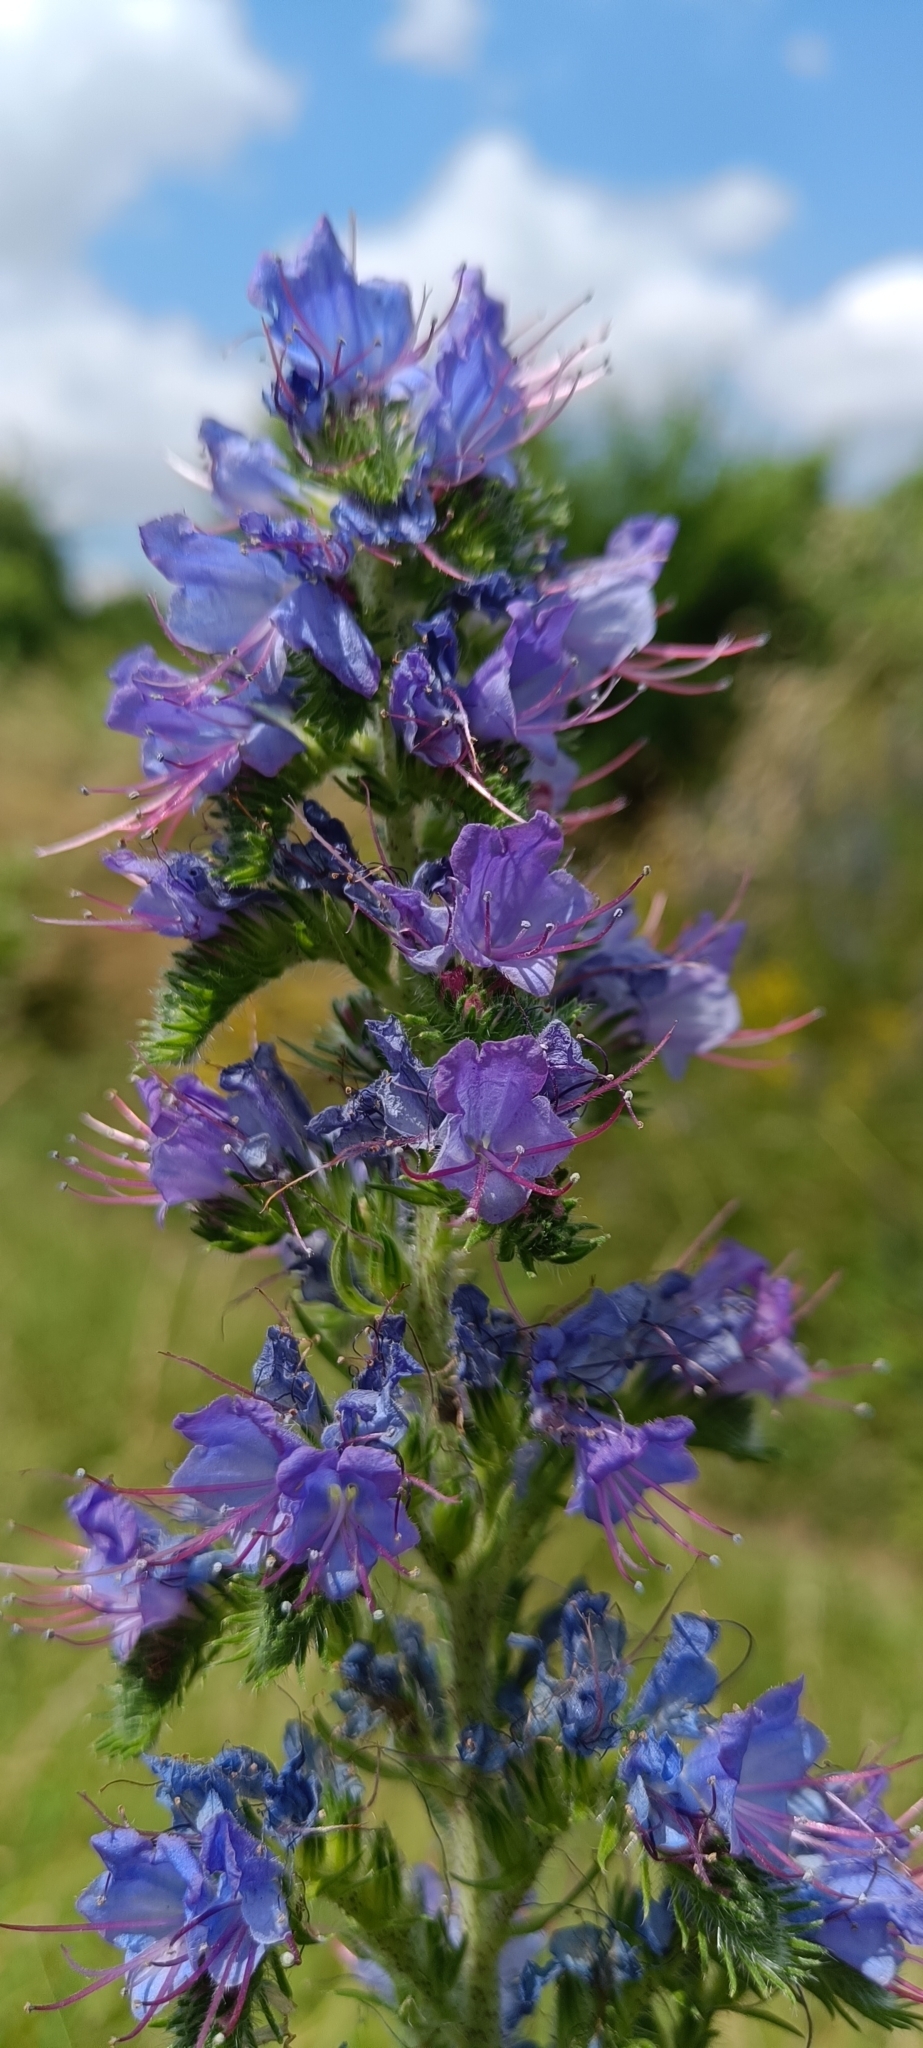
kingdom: Plantae
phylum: Tracheophyta
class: Magnoliopsida
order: Boraginales
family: Boraginaceae
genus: Echium
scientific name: Echium vulgare
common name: Common viper's bugloss
